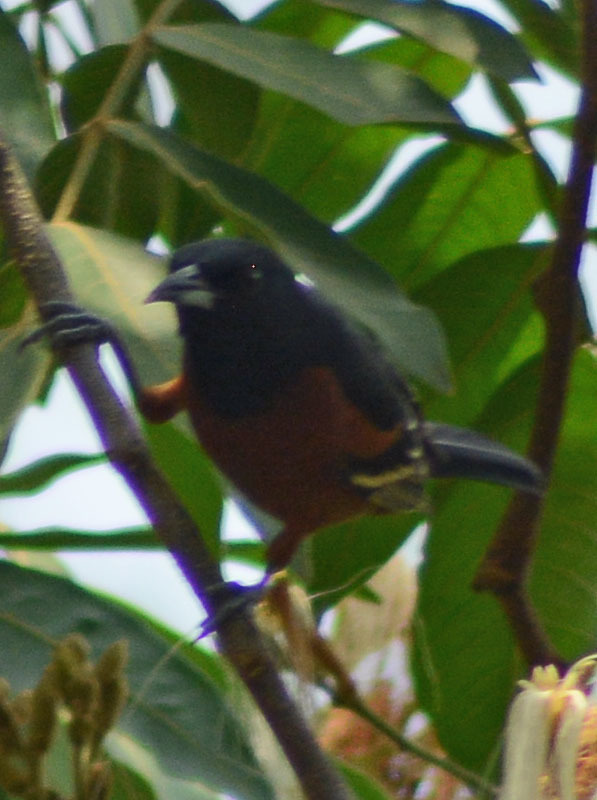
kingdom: Animalia
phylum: Chordata
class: Aves
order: Passeriformes
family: Icteridae
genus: Icterus
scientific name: Icterus spurius
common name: Orchard oriole
